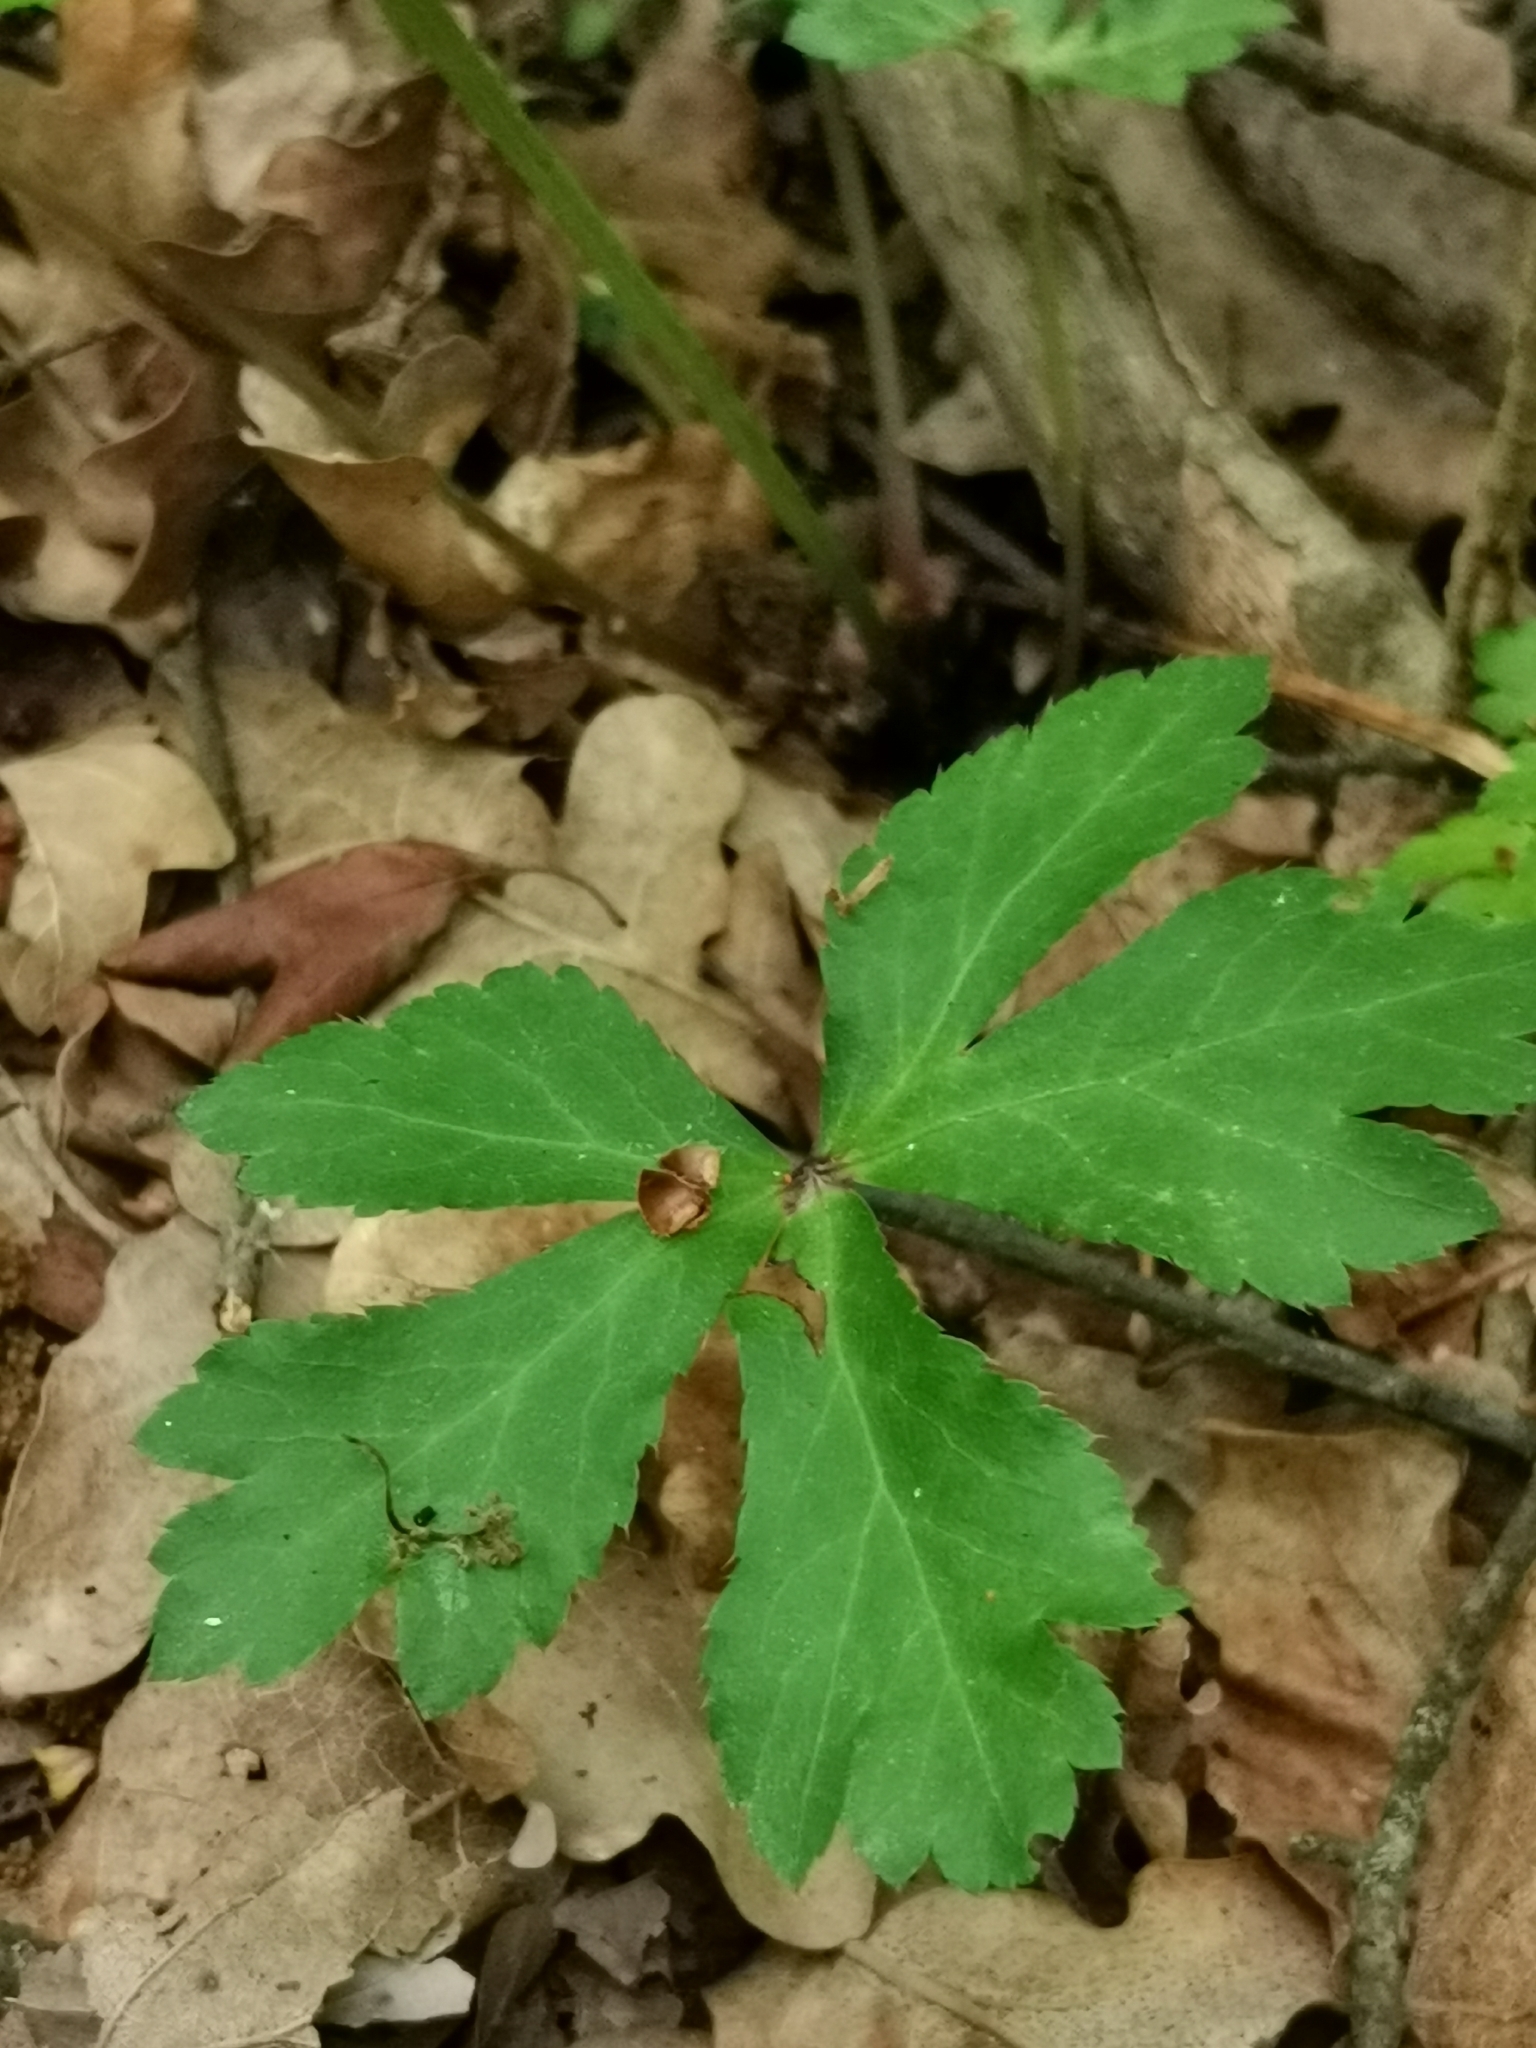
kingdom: Plantae
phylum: Tracheophyta
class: Magnoliopsida
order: Apiales
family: Apiaceae
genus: Sanicula
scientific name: Sanicula europaea
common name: Sanicle
